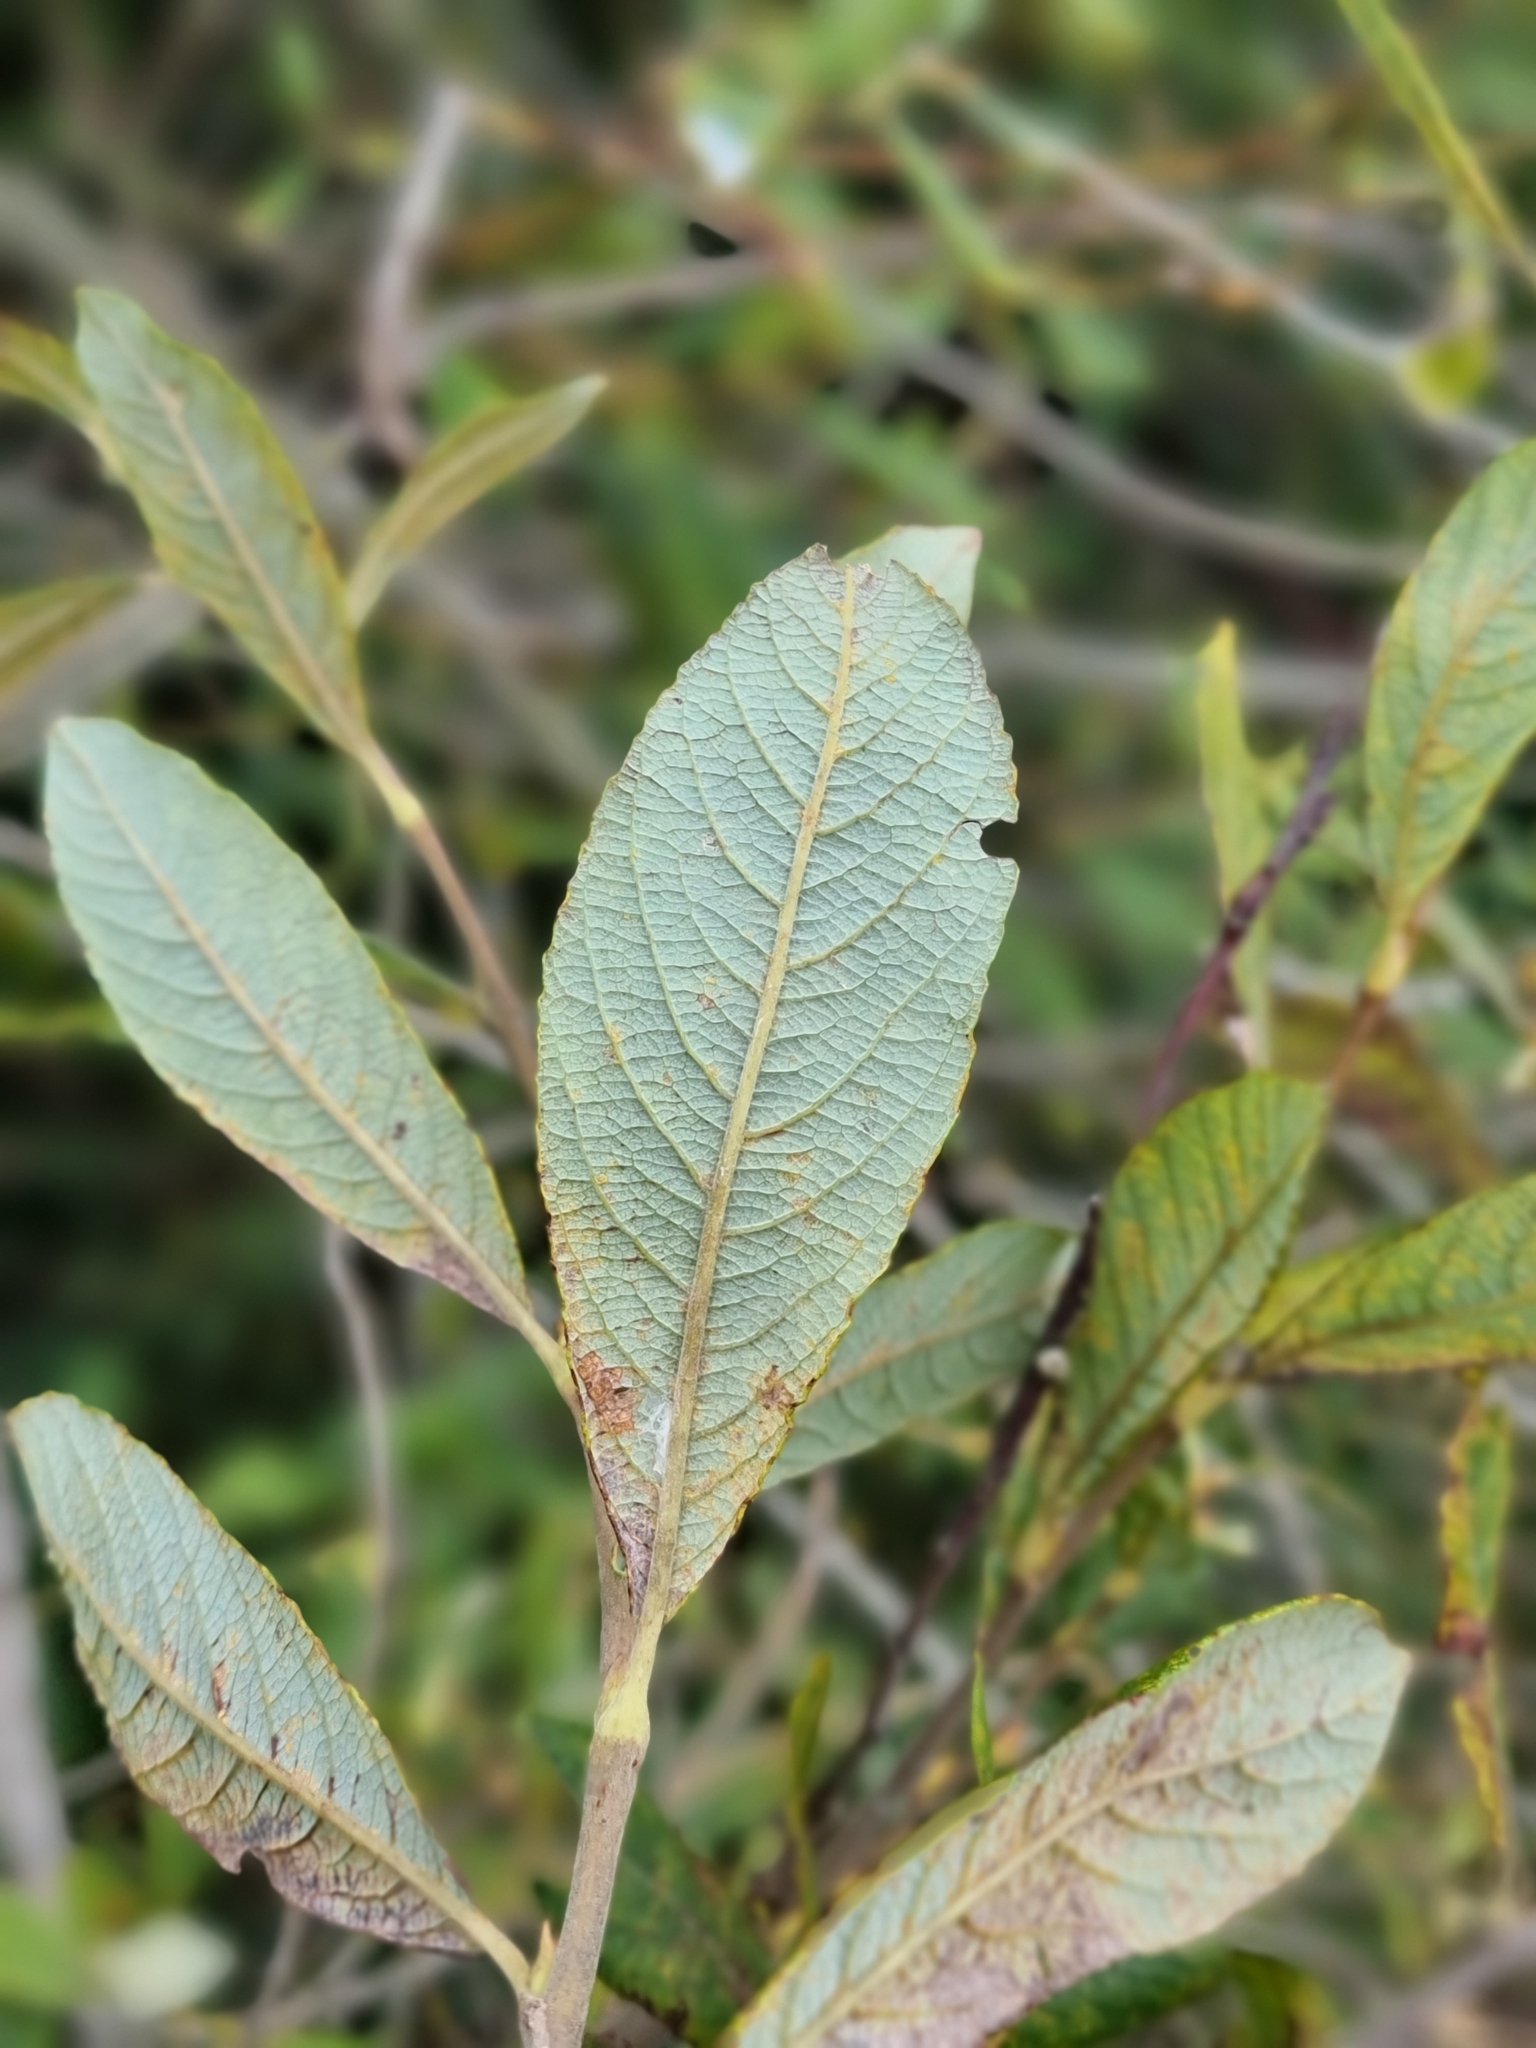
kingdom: Plantae
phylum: Tracheophyta
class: Magnoliopsida
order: Malpighiales
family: Salicaceae
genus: Salix
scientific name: Salix atrocinerea
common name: Rusty willow
